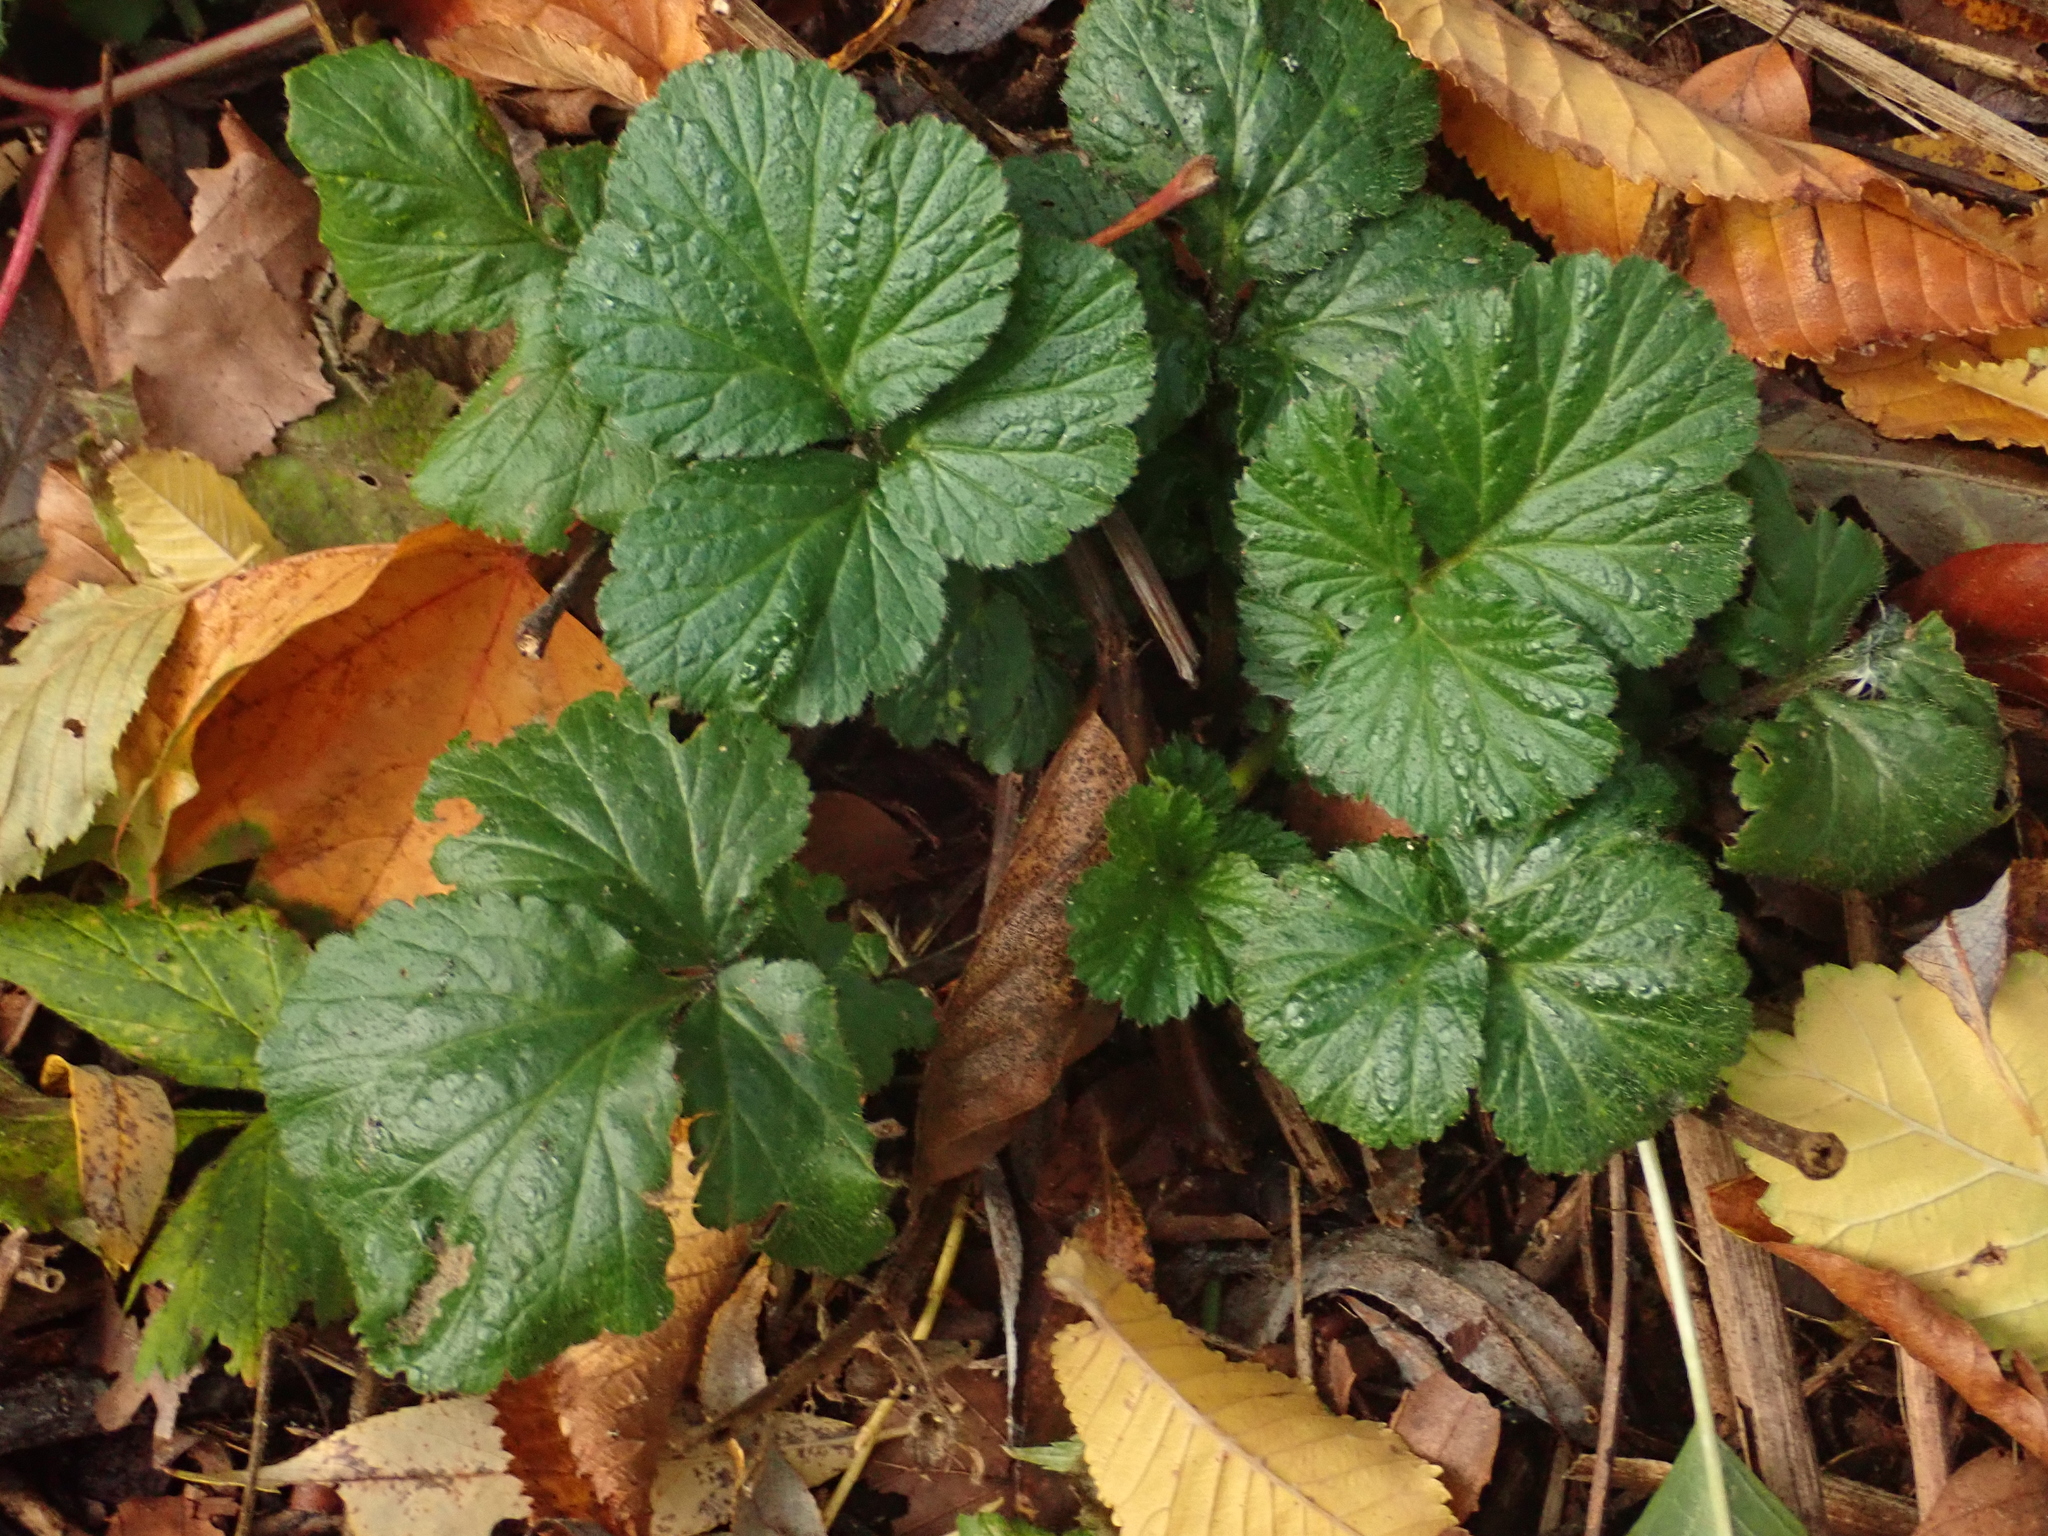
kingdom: Plantae
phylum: Tracheophyta
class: Magnoliopsida
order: Rosales
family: Rosaceae
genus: Geum
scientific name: Geum urbanum
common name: Wood avens
